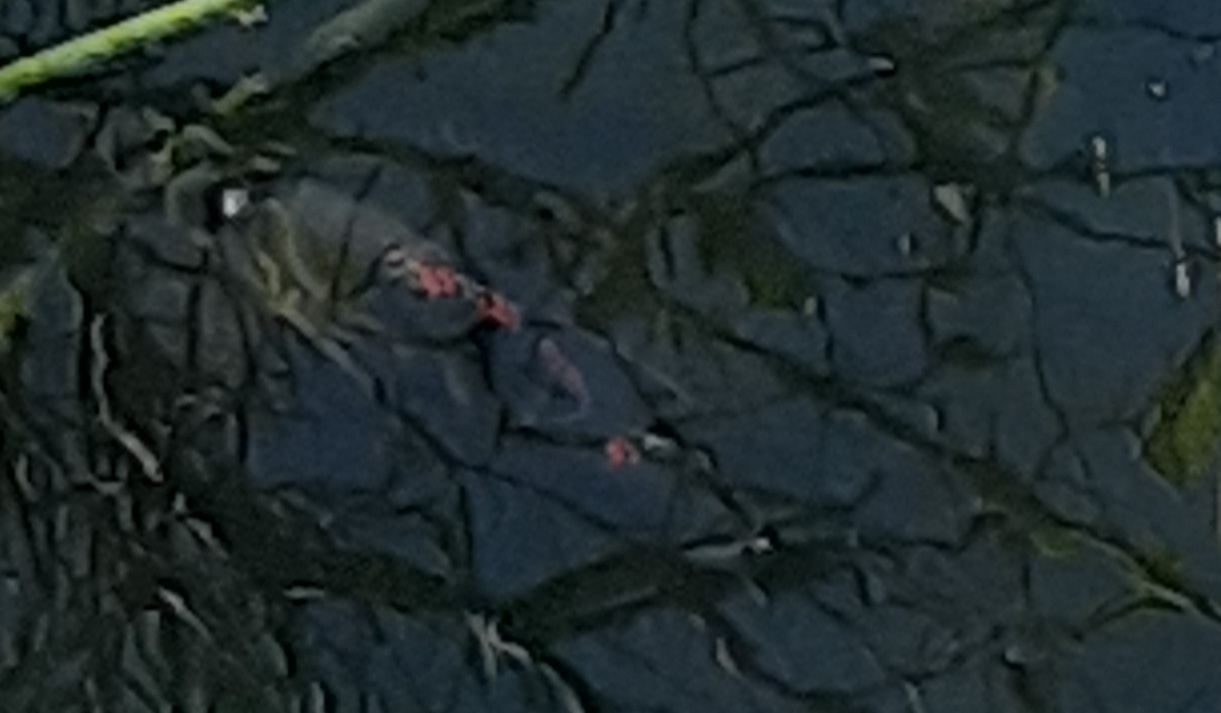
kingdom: Animalia
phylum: Chordata
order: Perciformes
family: Cichlidae
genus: Astronotus
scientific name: Astronotus ocellatus
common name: Oscar
